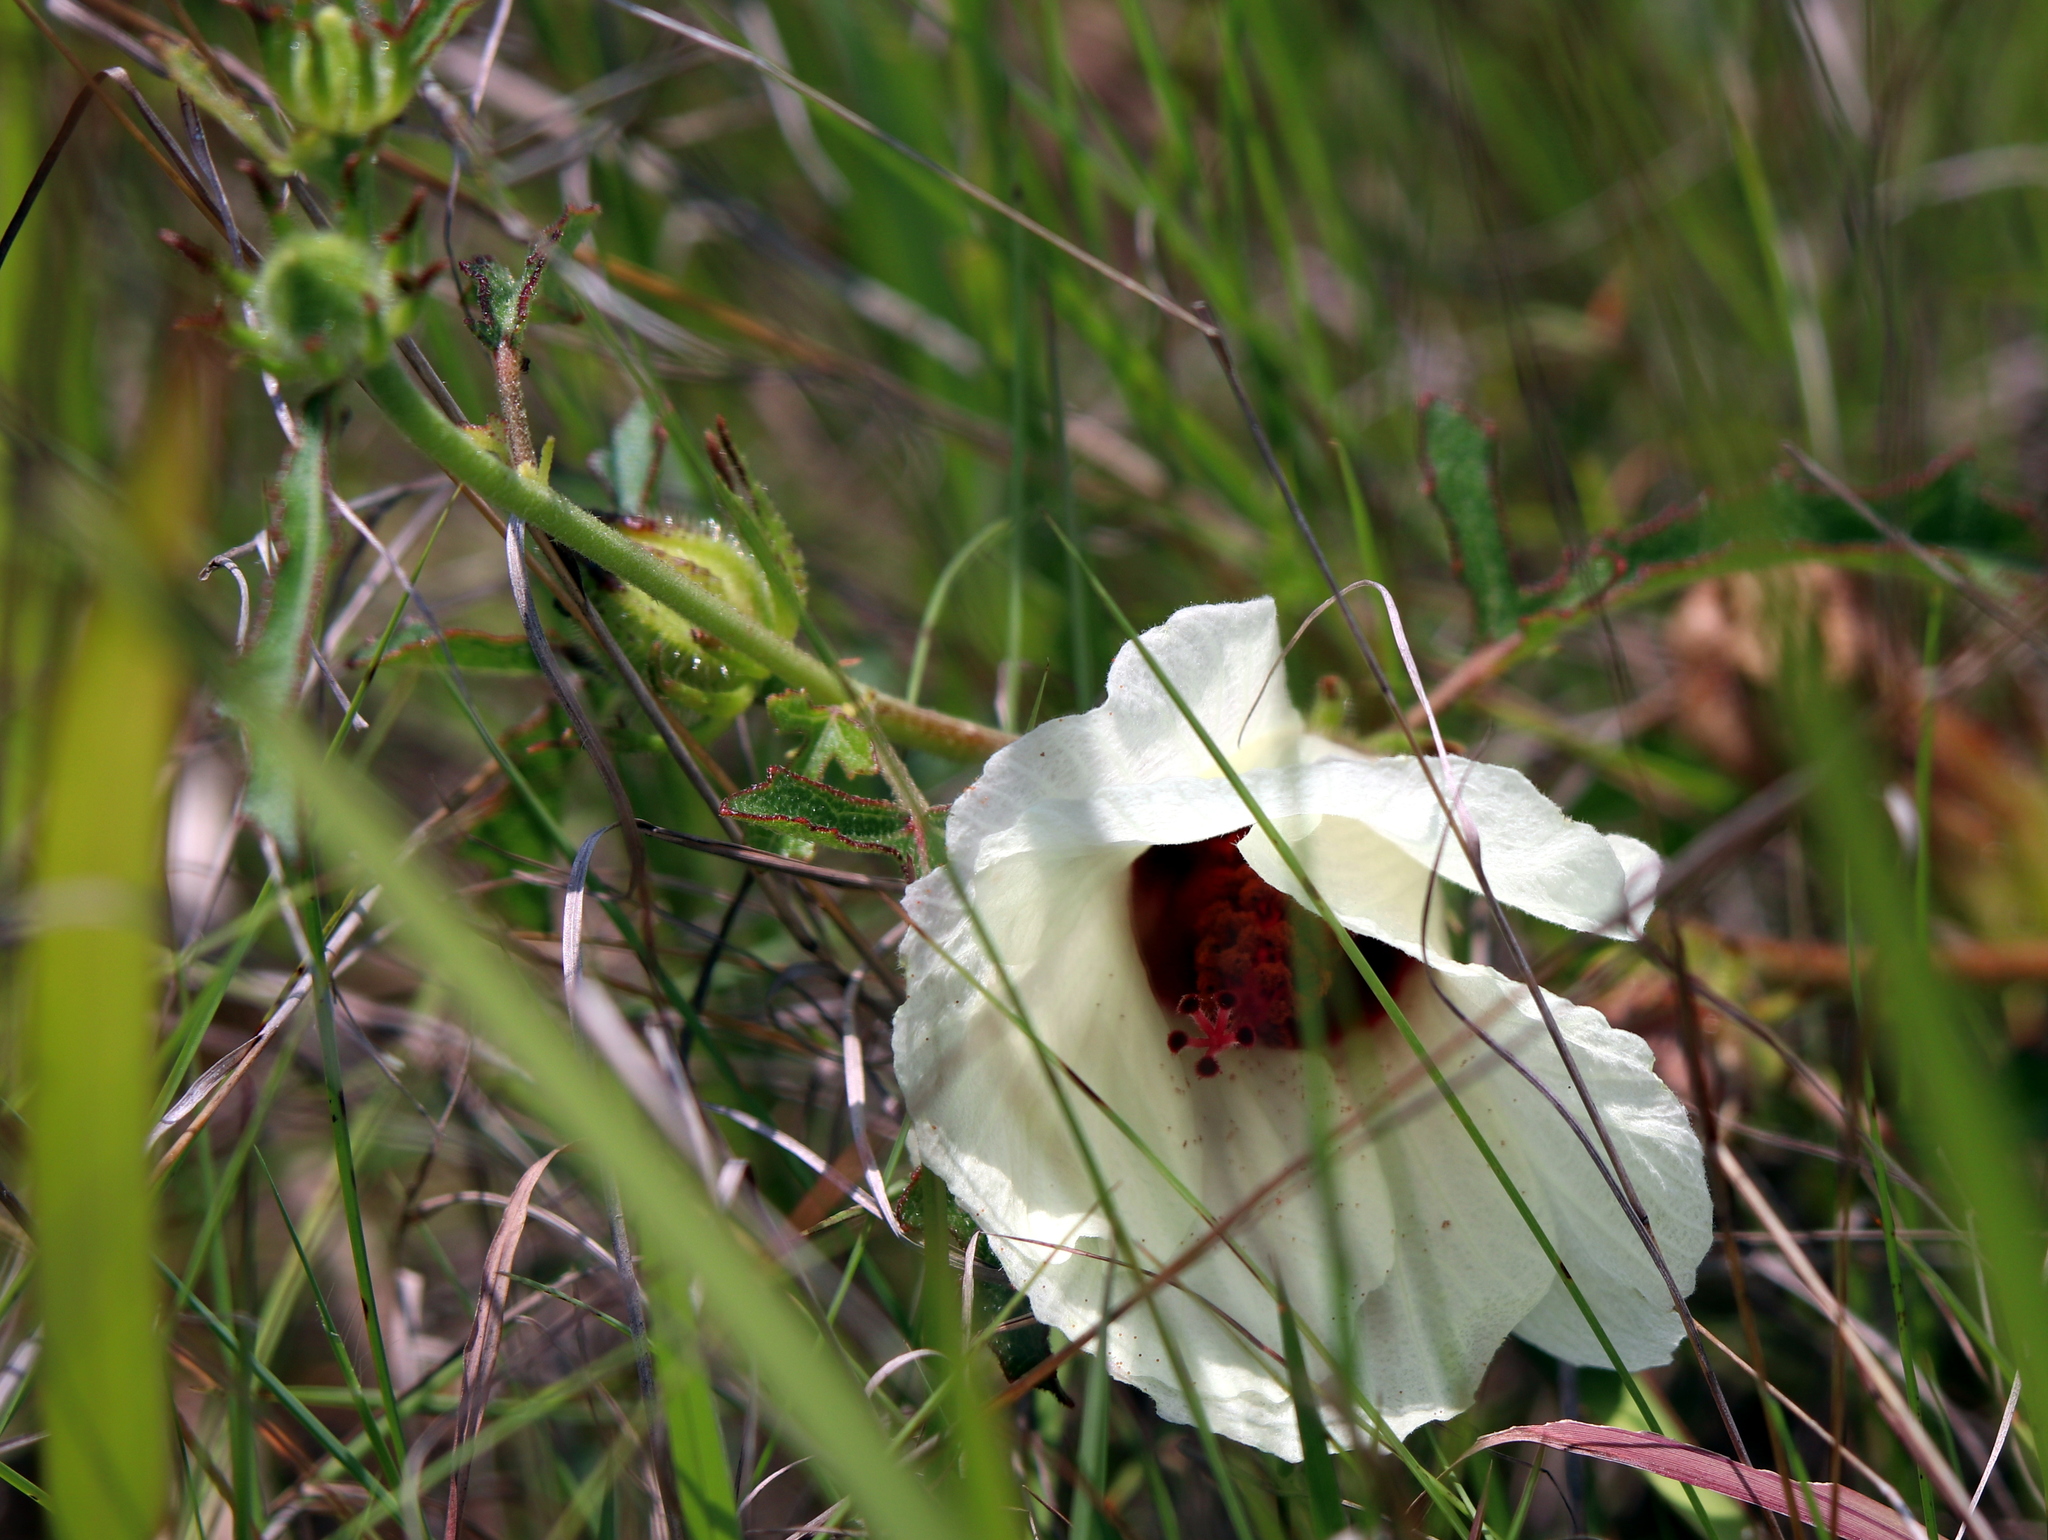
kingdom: Plantae
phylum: Tracheophyta
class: Magnoliopsida
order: Malvales
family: Malvaceae
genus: Hibiscus
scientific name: Hibiscus aculeatus
